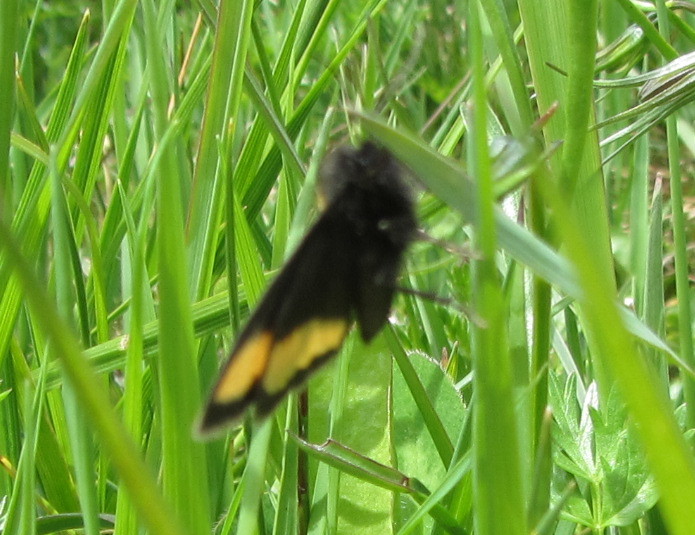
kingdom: Animalia
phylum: Arthropoda
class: Insecta
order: Lepidoptera
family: Geometridae
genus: Psodos
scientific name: Psodos quadrifaria
